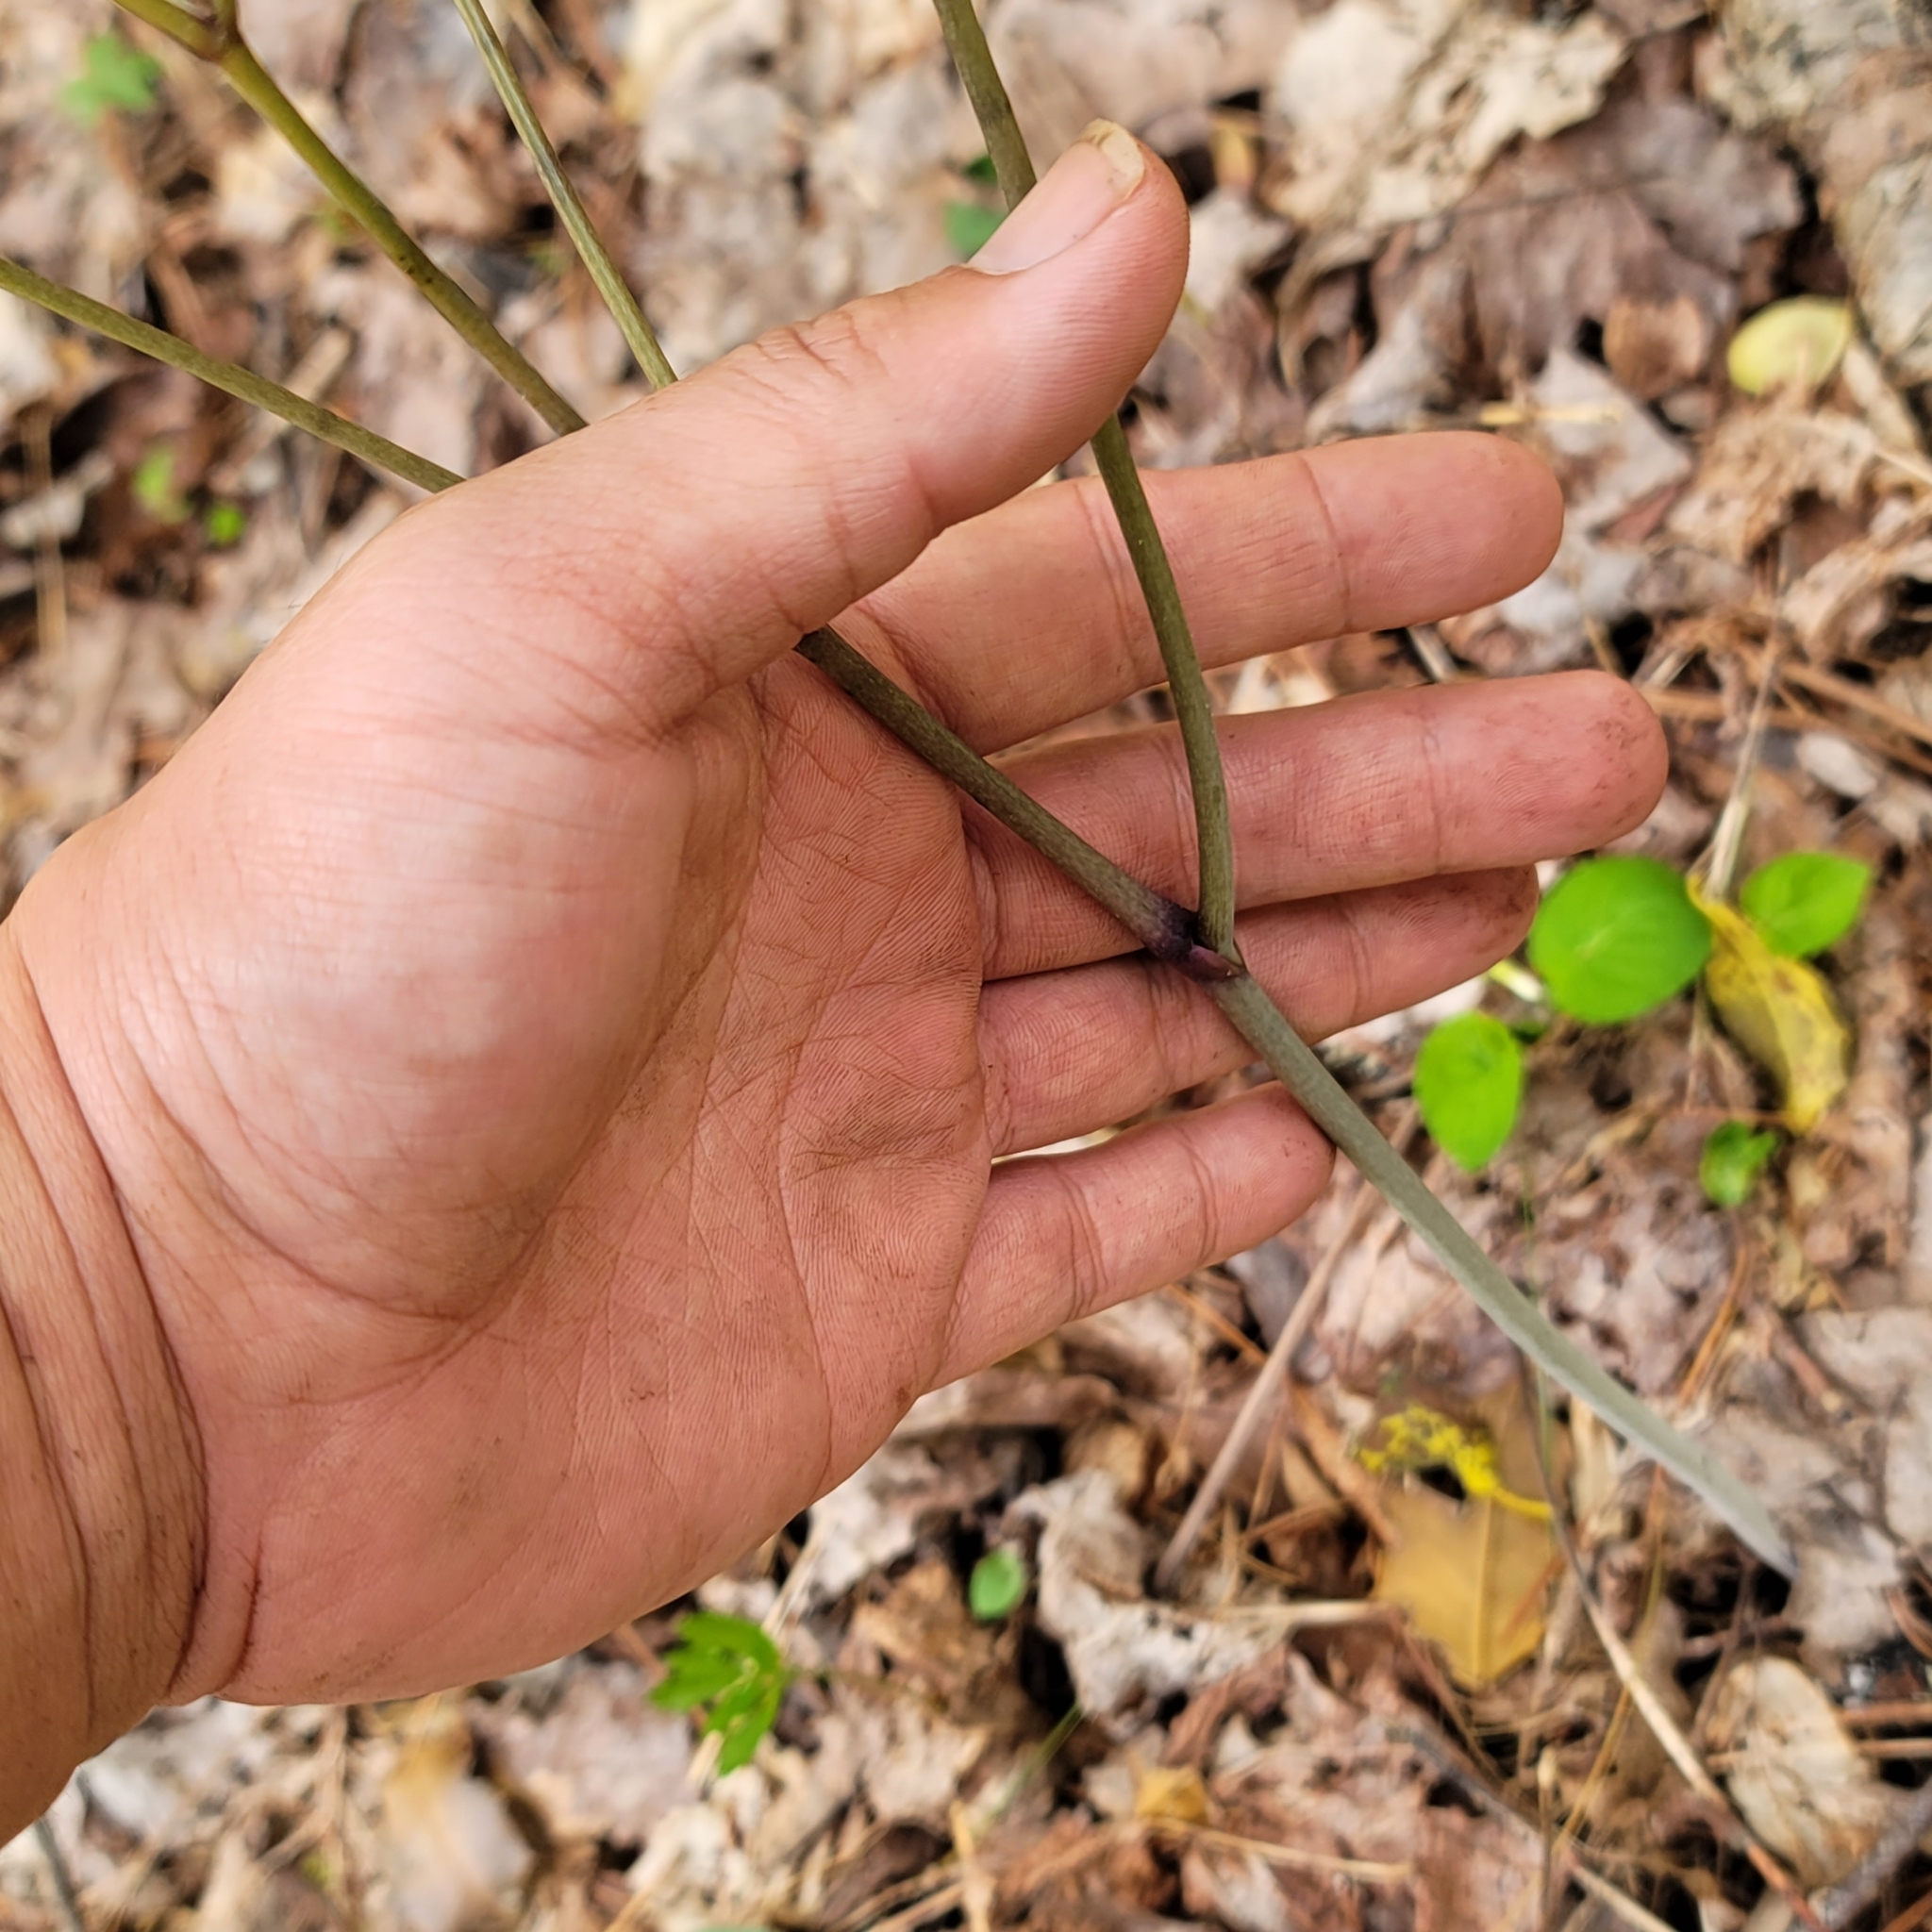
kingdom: Plantae
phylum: Tracheophyta
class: Magnoliopsida
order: Ranunculales
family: Ranunculaceae
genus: Actaea
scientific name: Actaea pachypoda
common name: Doll's-eyes
